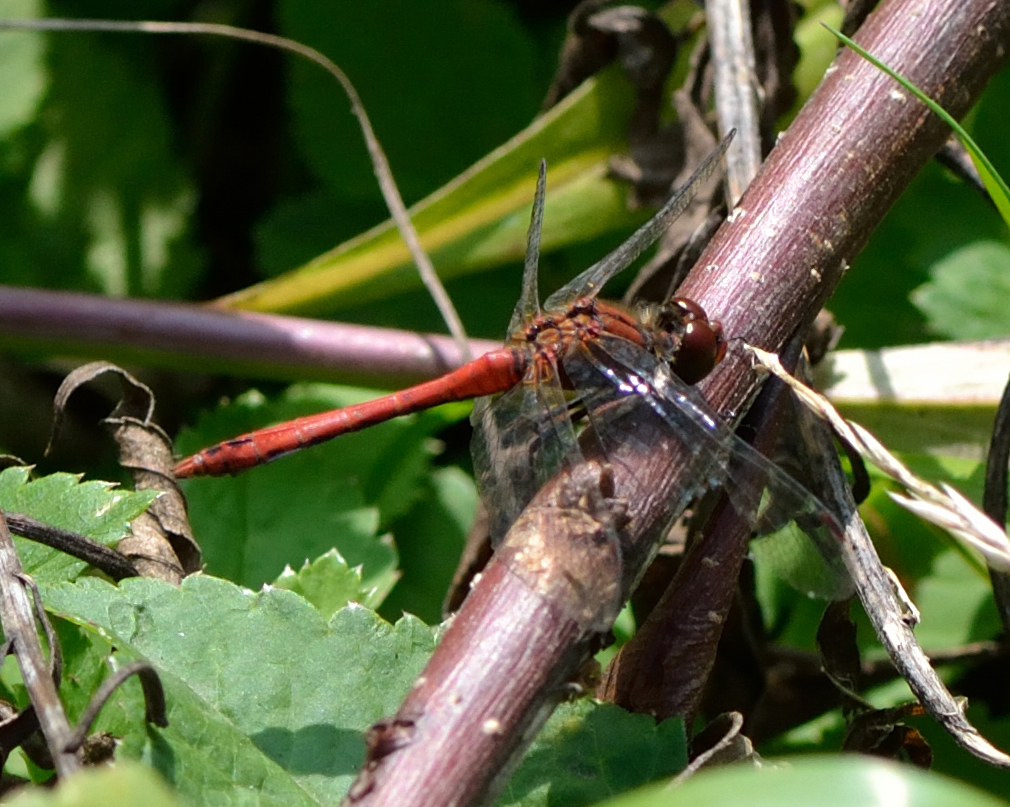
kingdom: Animalia
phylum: Arthropoda
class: Insecta
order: Odonata
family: Libellulidae
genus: Sympetrum
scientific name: Sympetrum sanguineum
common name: Ruddy darter
